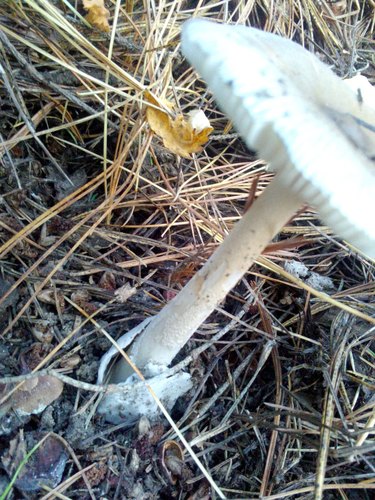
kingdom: Fungi
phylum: Basidiomycota
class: Agaricomycetes
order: Agaricales
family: Amanitaceae
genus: Amanita
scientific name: Amanita vaginata
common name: Grisette
